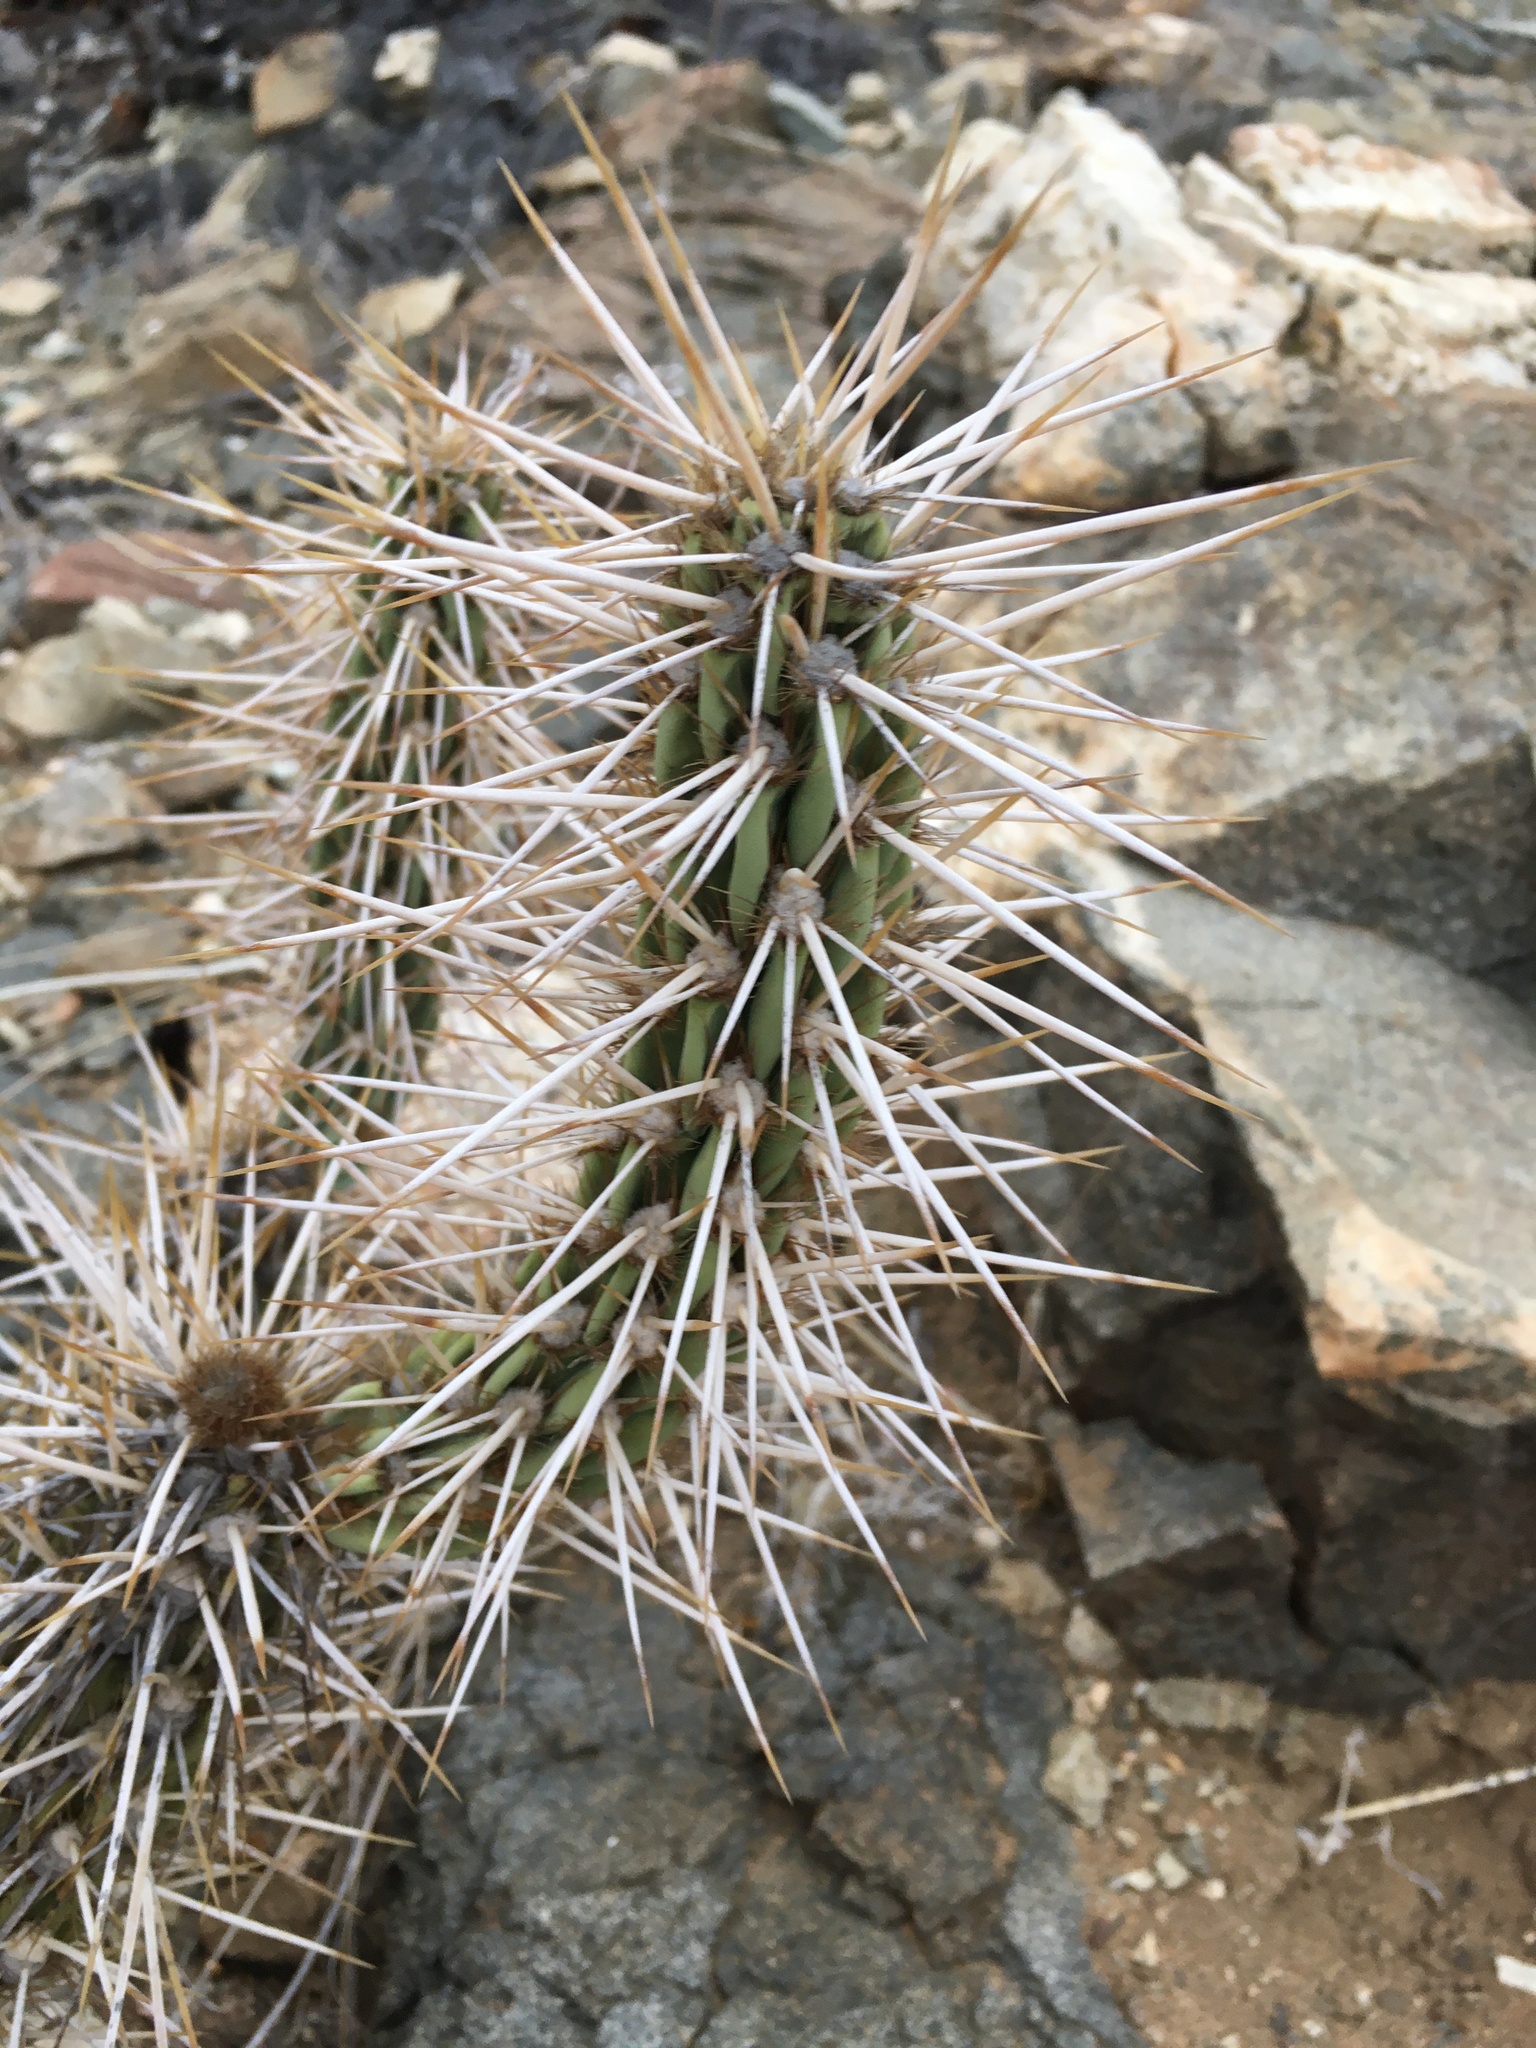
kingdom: Plantae
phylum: Tracheophyta
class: Magnoliopsida
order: Caryophyllales
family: Cactaceae
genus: Miqueliopuntia
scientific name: Miqueliopuntia miquelii
